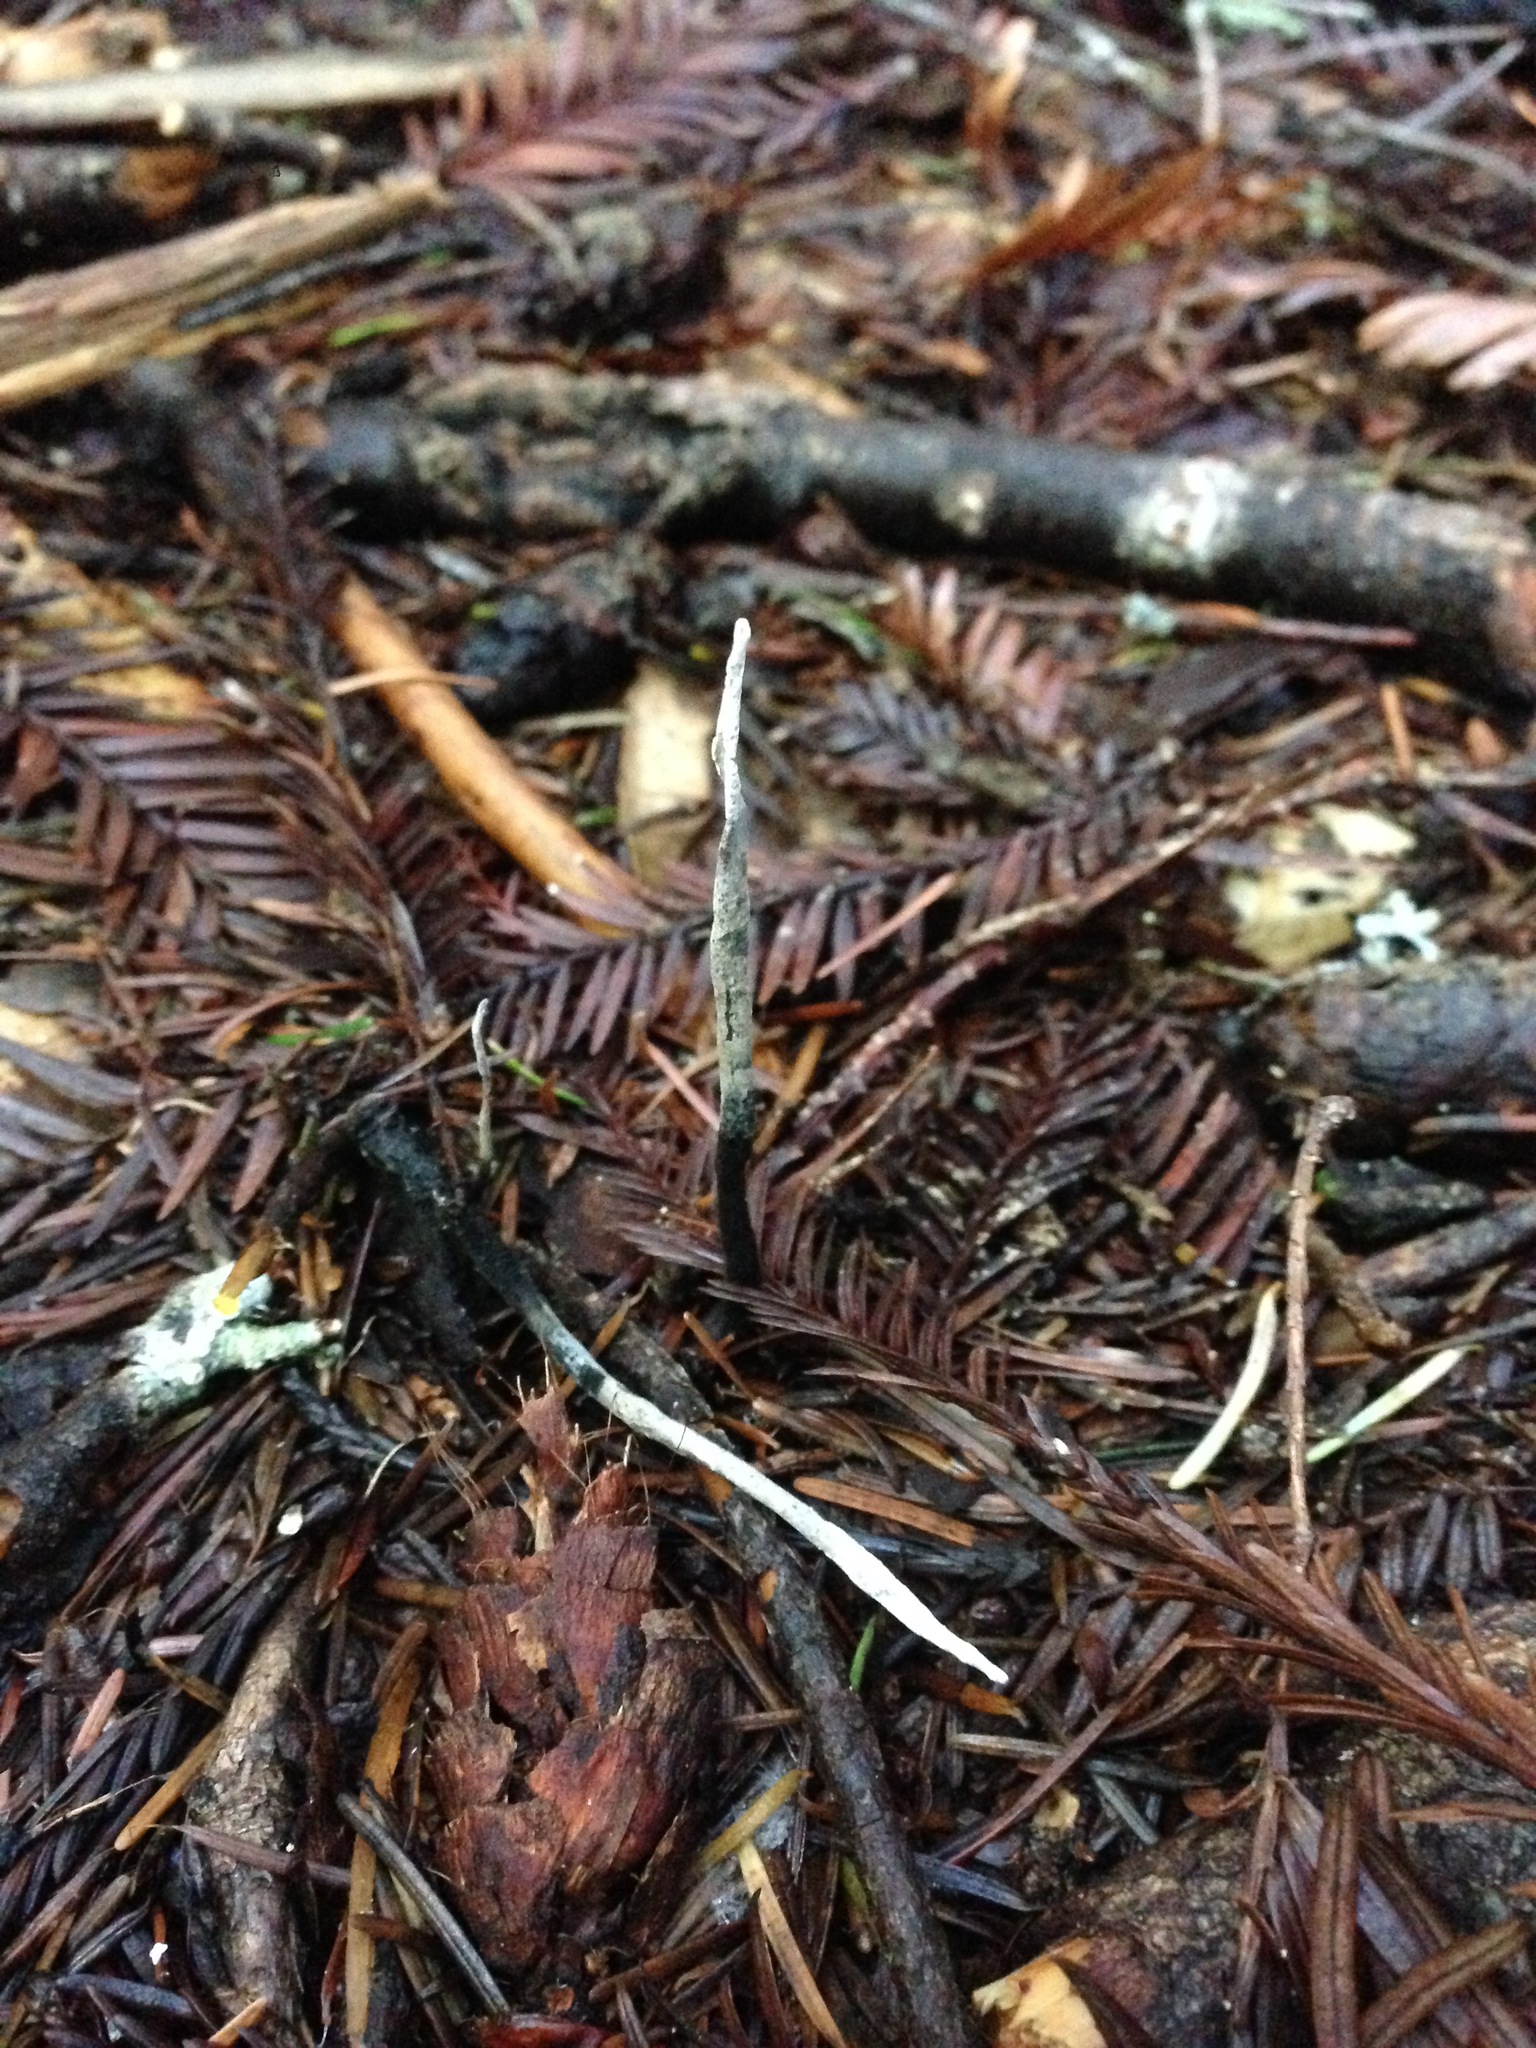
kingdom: Fungi
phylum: Ascomycota
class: Sordariomycetes
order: Xylariales
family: Xylariaceae
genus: Xylaria
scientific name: Xylaria hypoxylon
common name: Candle-snuff fungus
